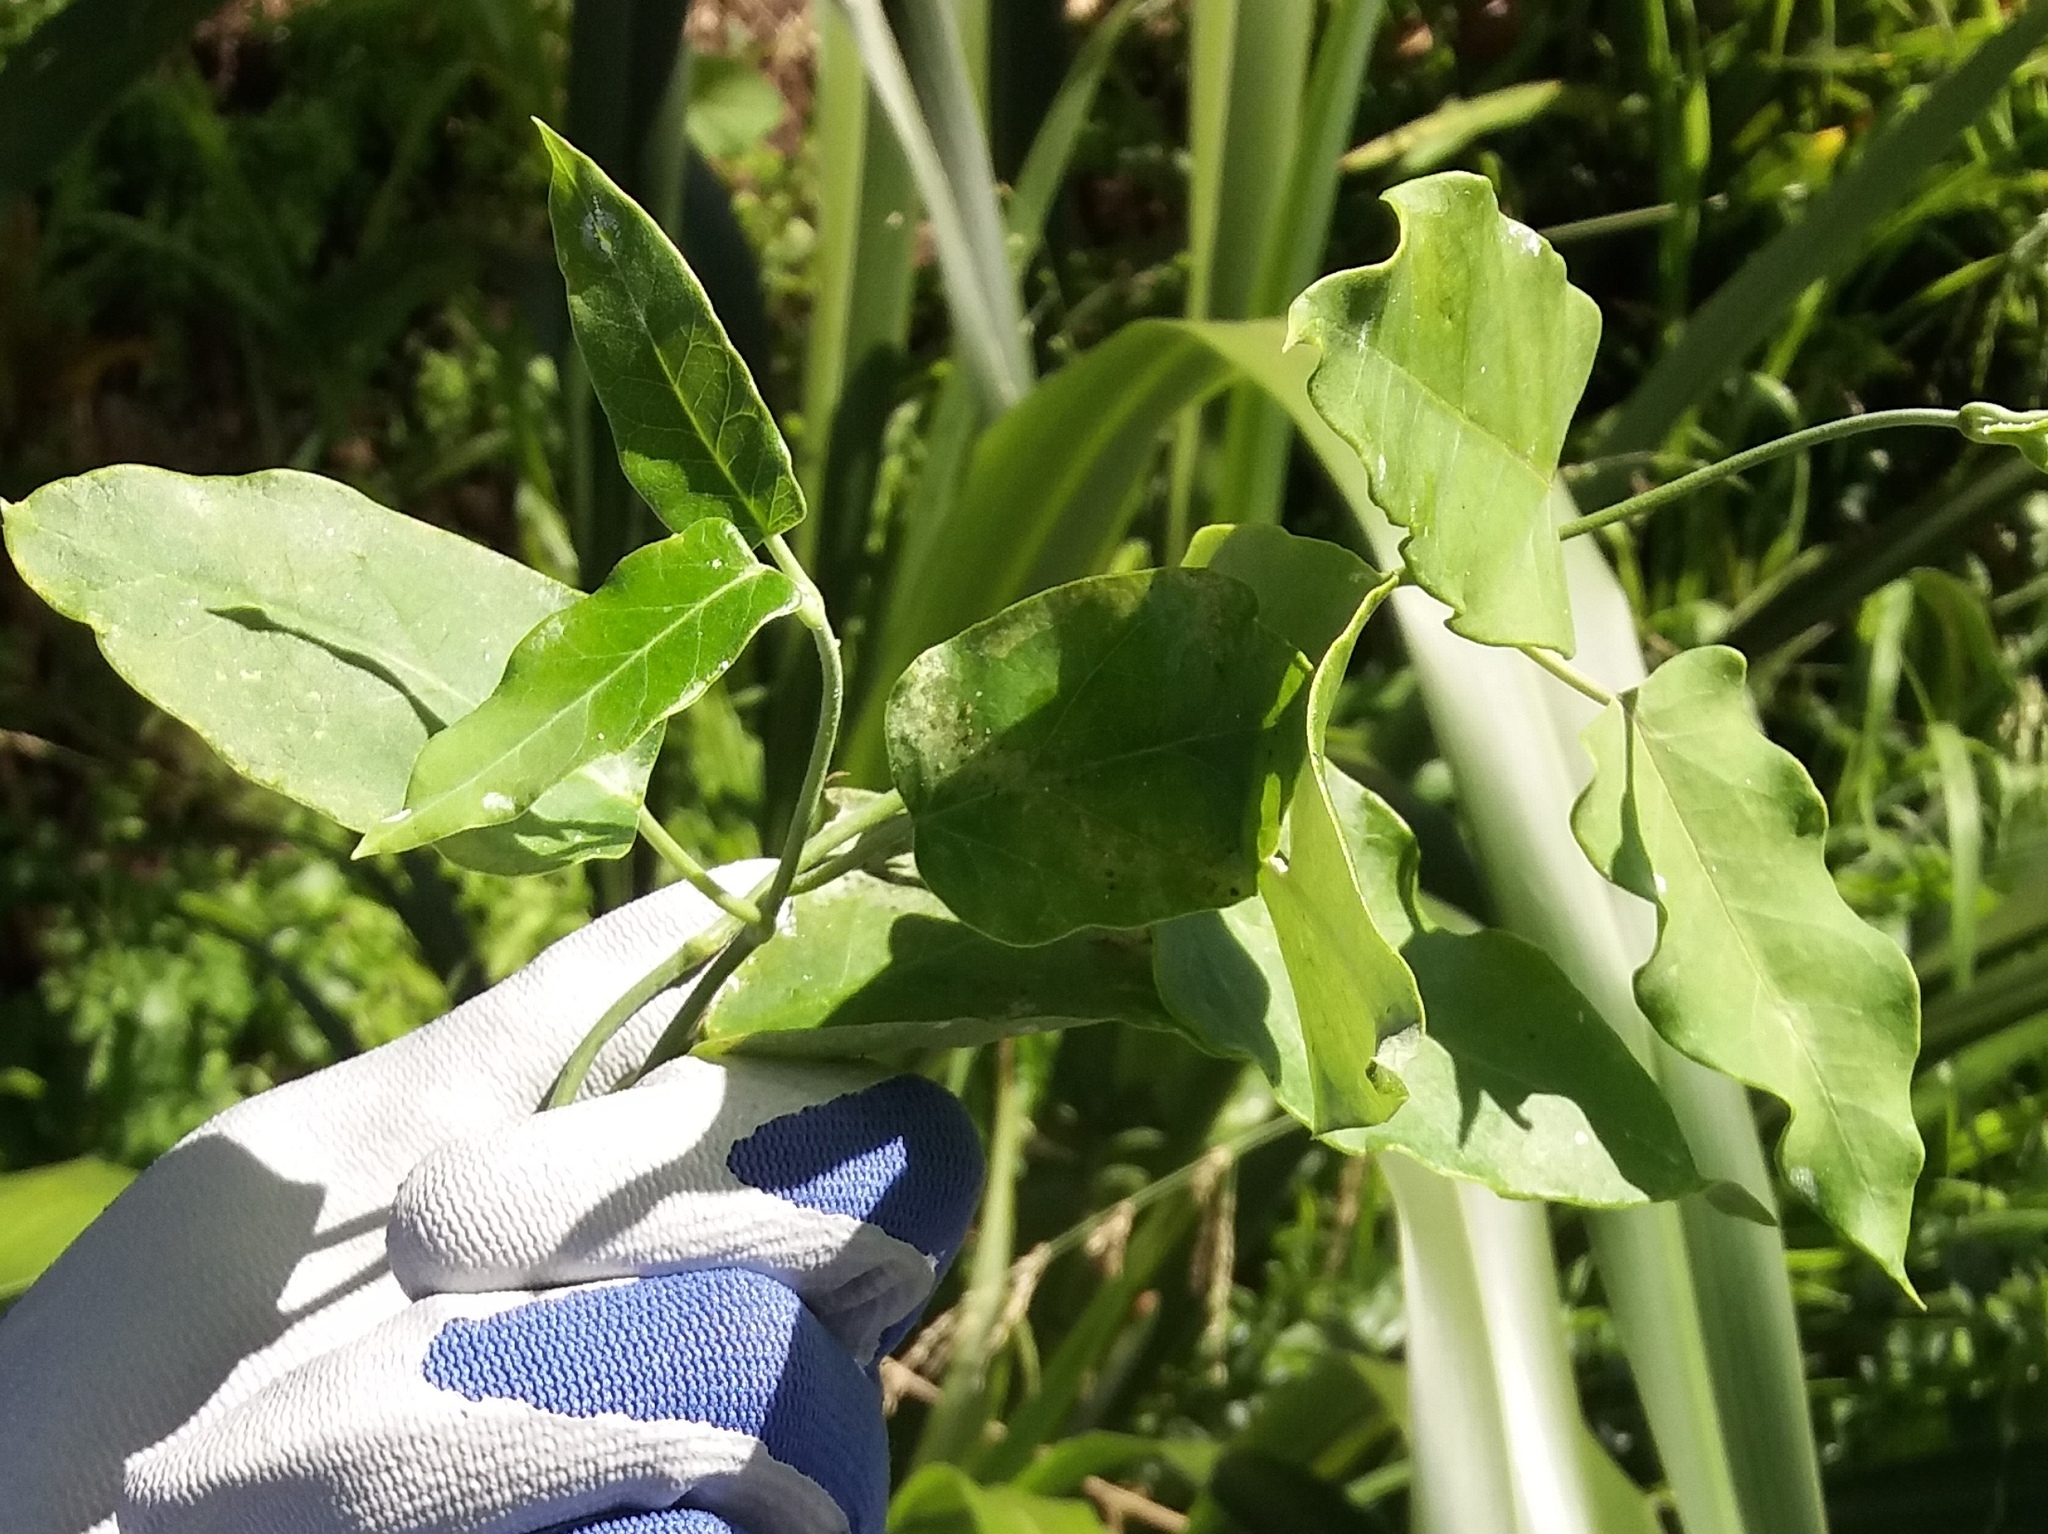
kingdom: Plantae
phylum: Tracheophyta
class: Magnoliopsida
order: Gentianales
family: Apocynaceae
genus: Araujia
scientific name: Araujia sericifera
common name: White bladderflower
